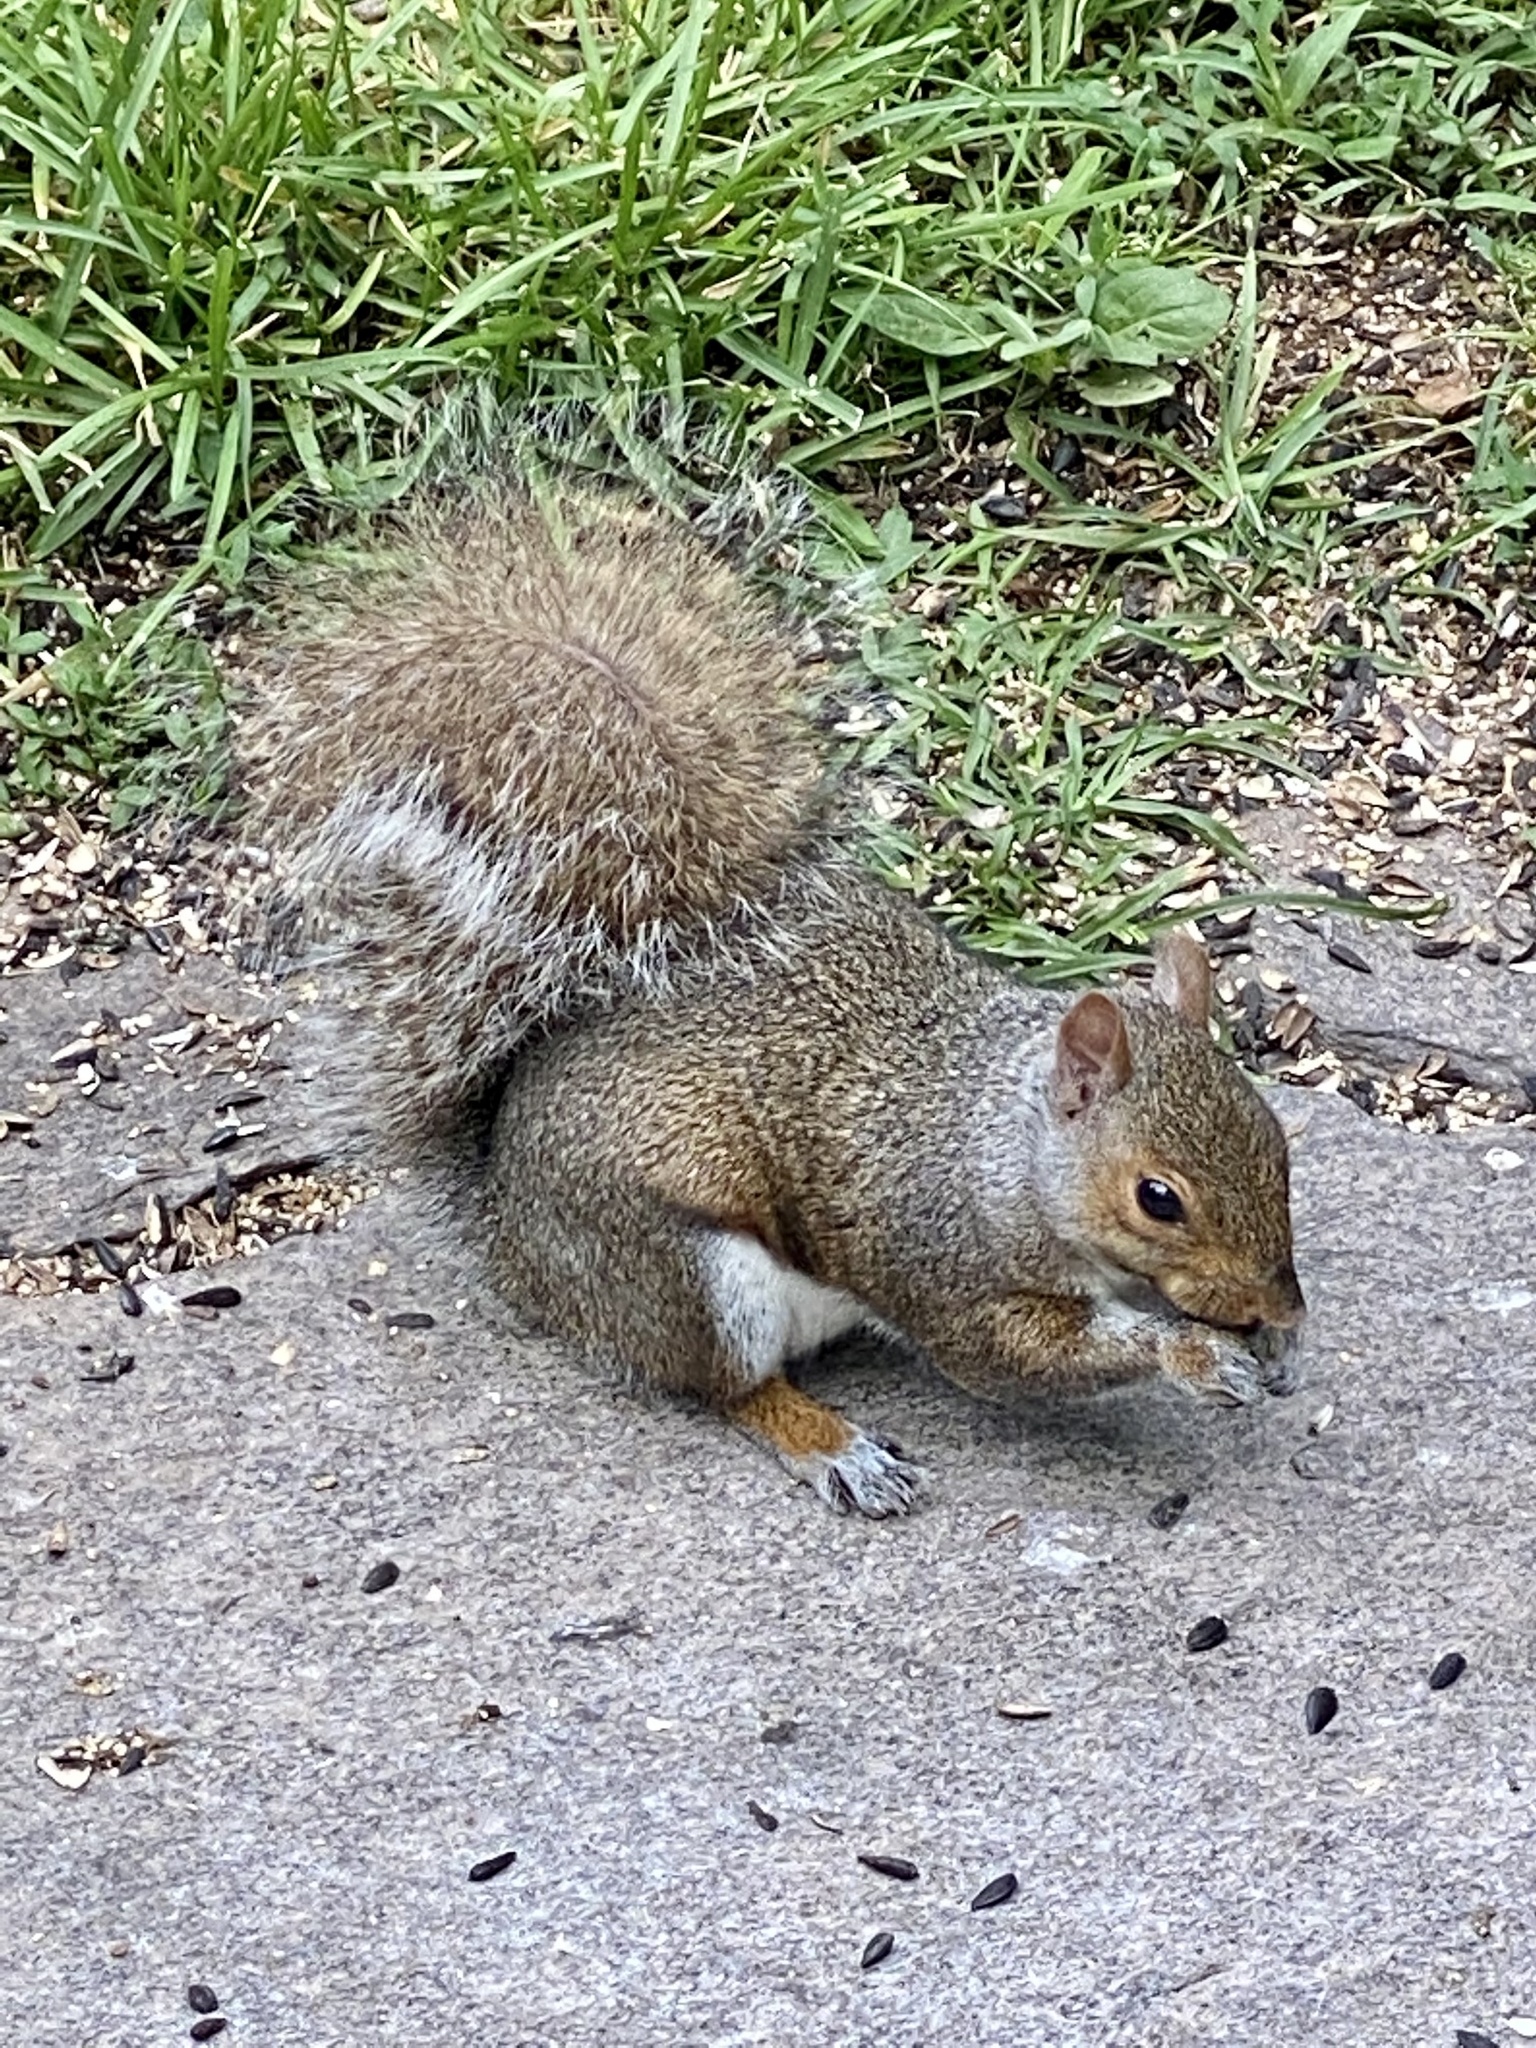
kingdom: Animalia
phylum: Chordata
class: Mammalia
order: Rodentia
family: Sciuridae
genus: Sciurus
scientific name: Sciurus carolinensis
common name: Eastern gray squirrel
